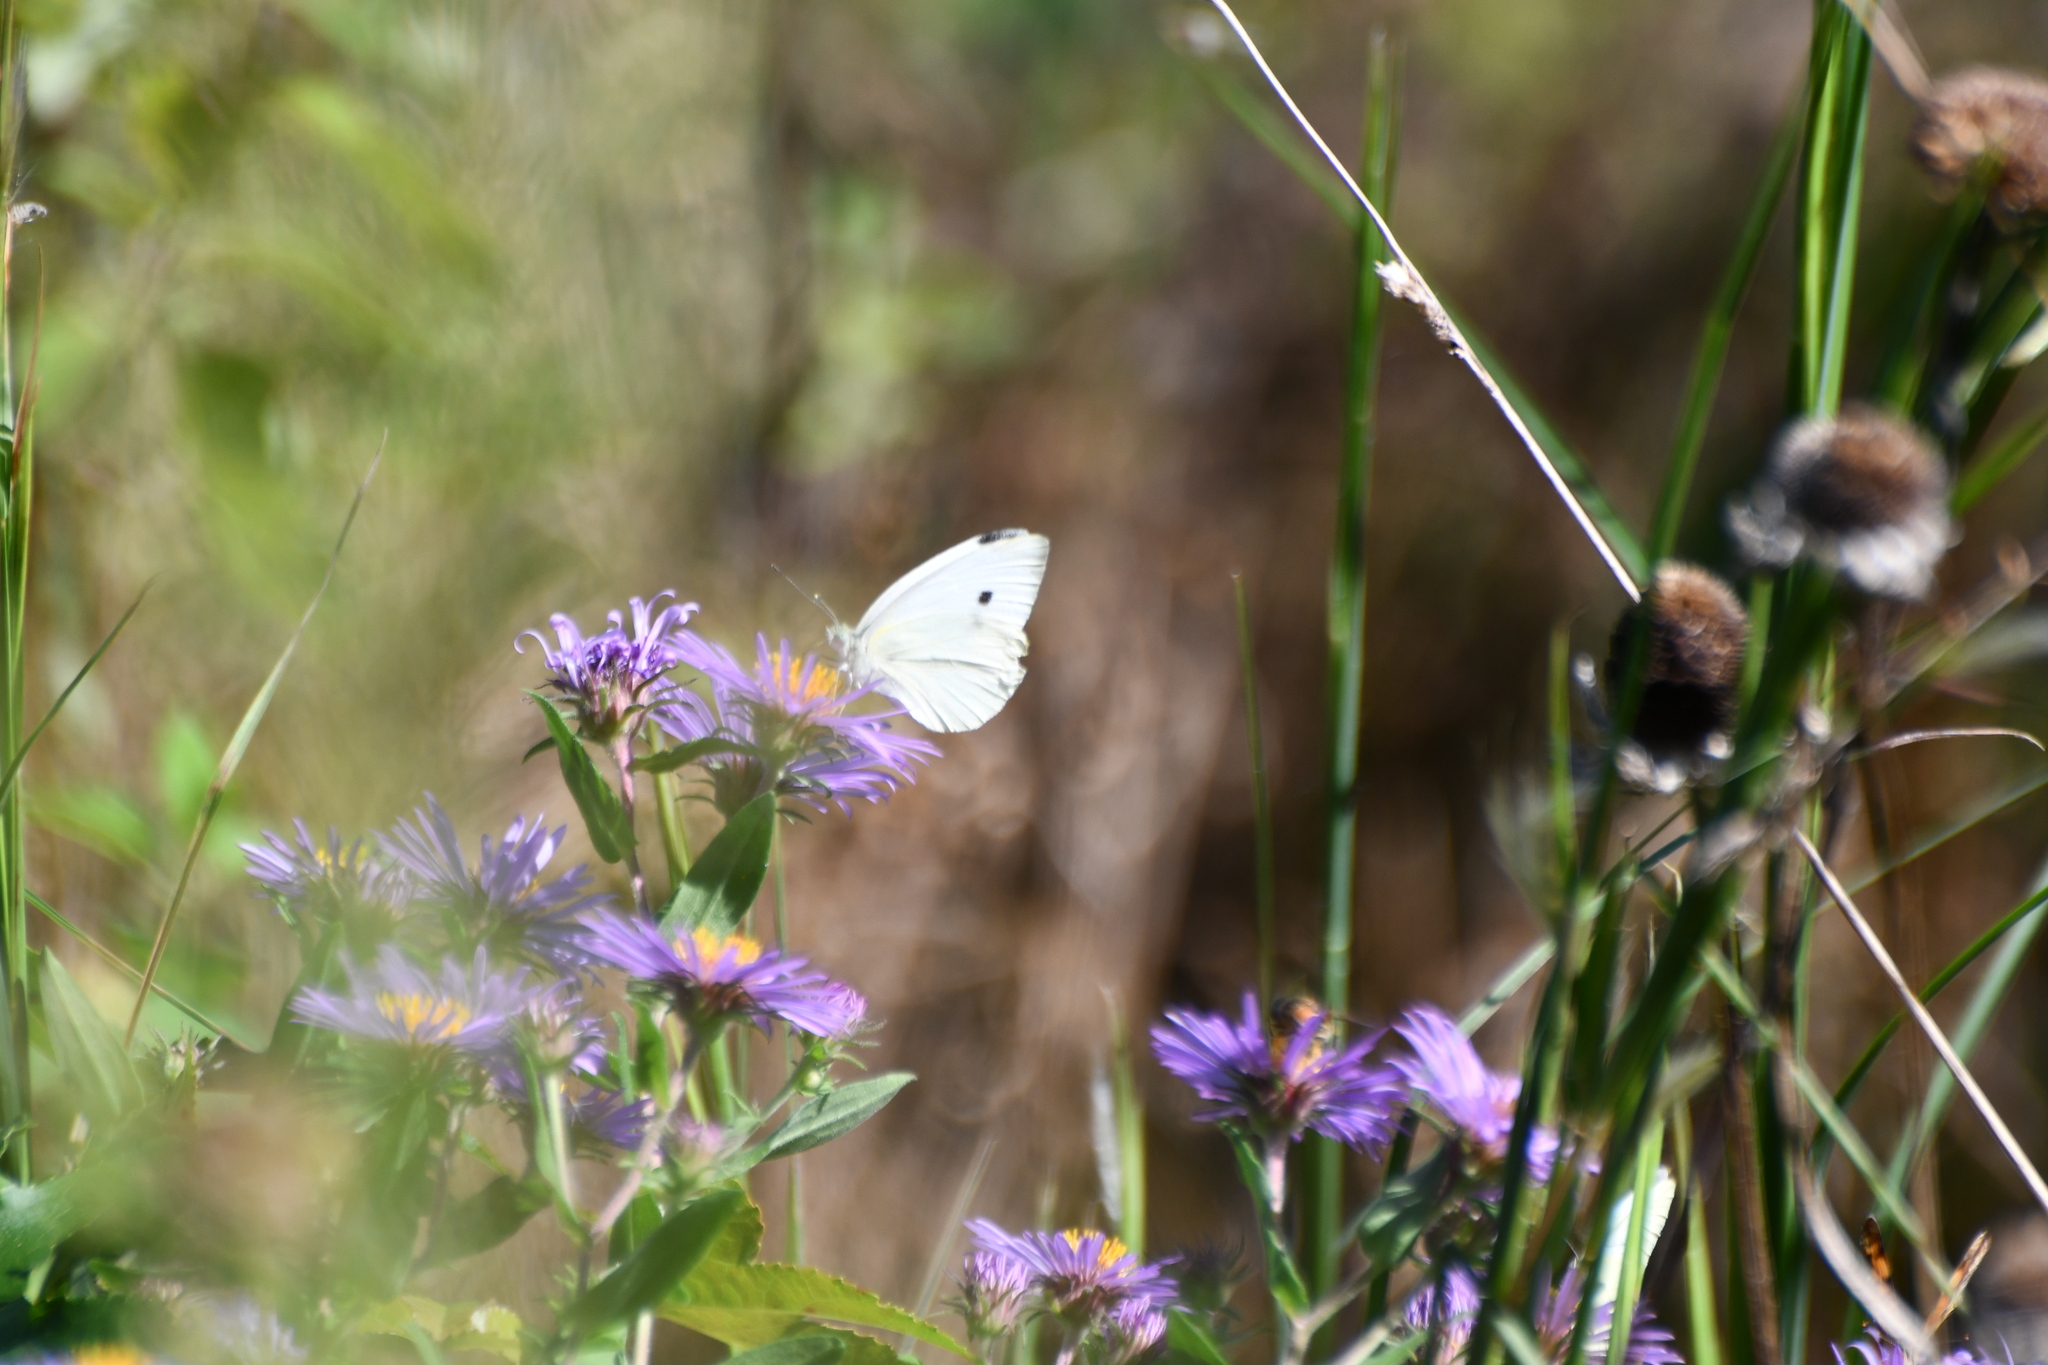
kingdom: Animalia
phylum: Arthropoda
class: Insecta
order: Lepidoptera
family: Pieridae
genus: Pieris
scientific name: Pieris rapae
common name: Small white
